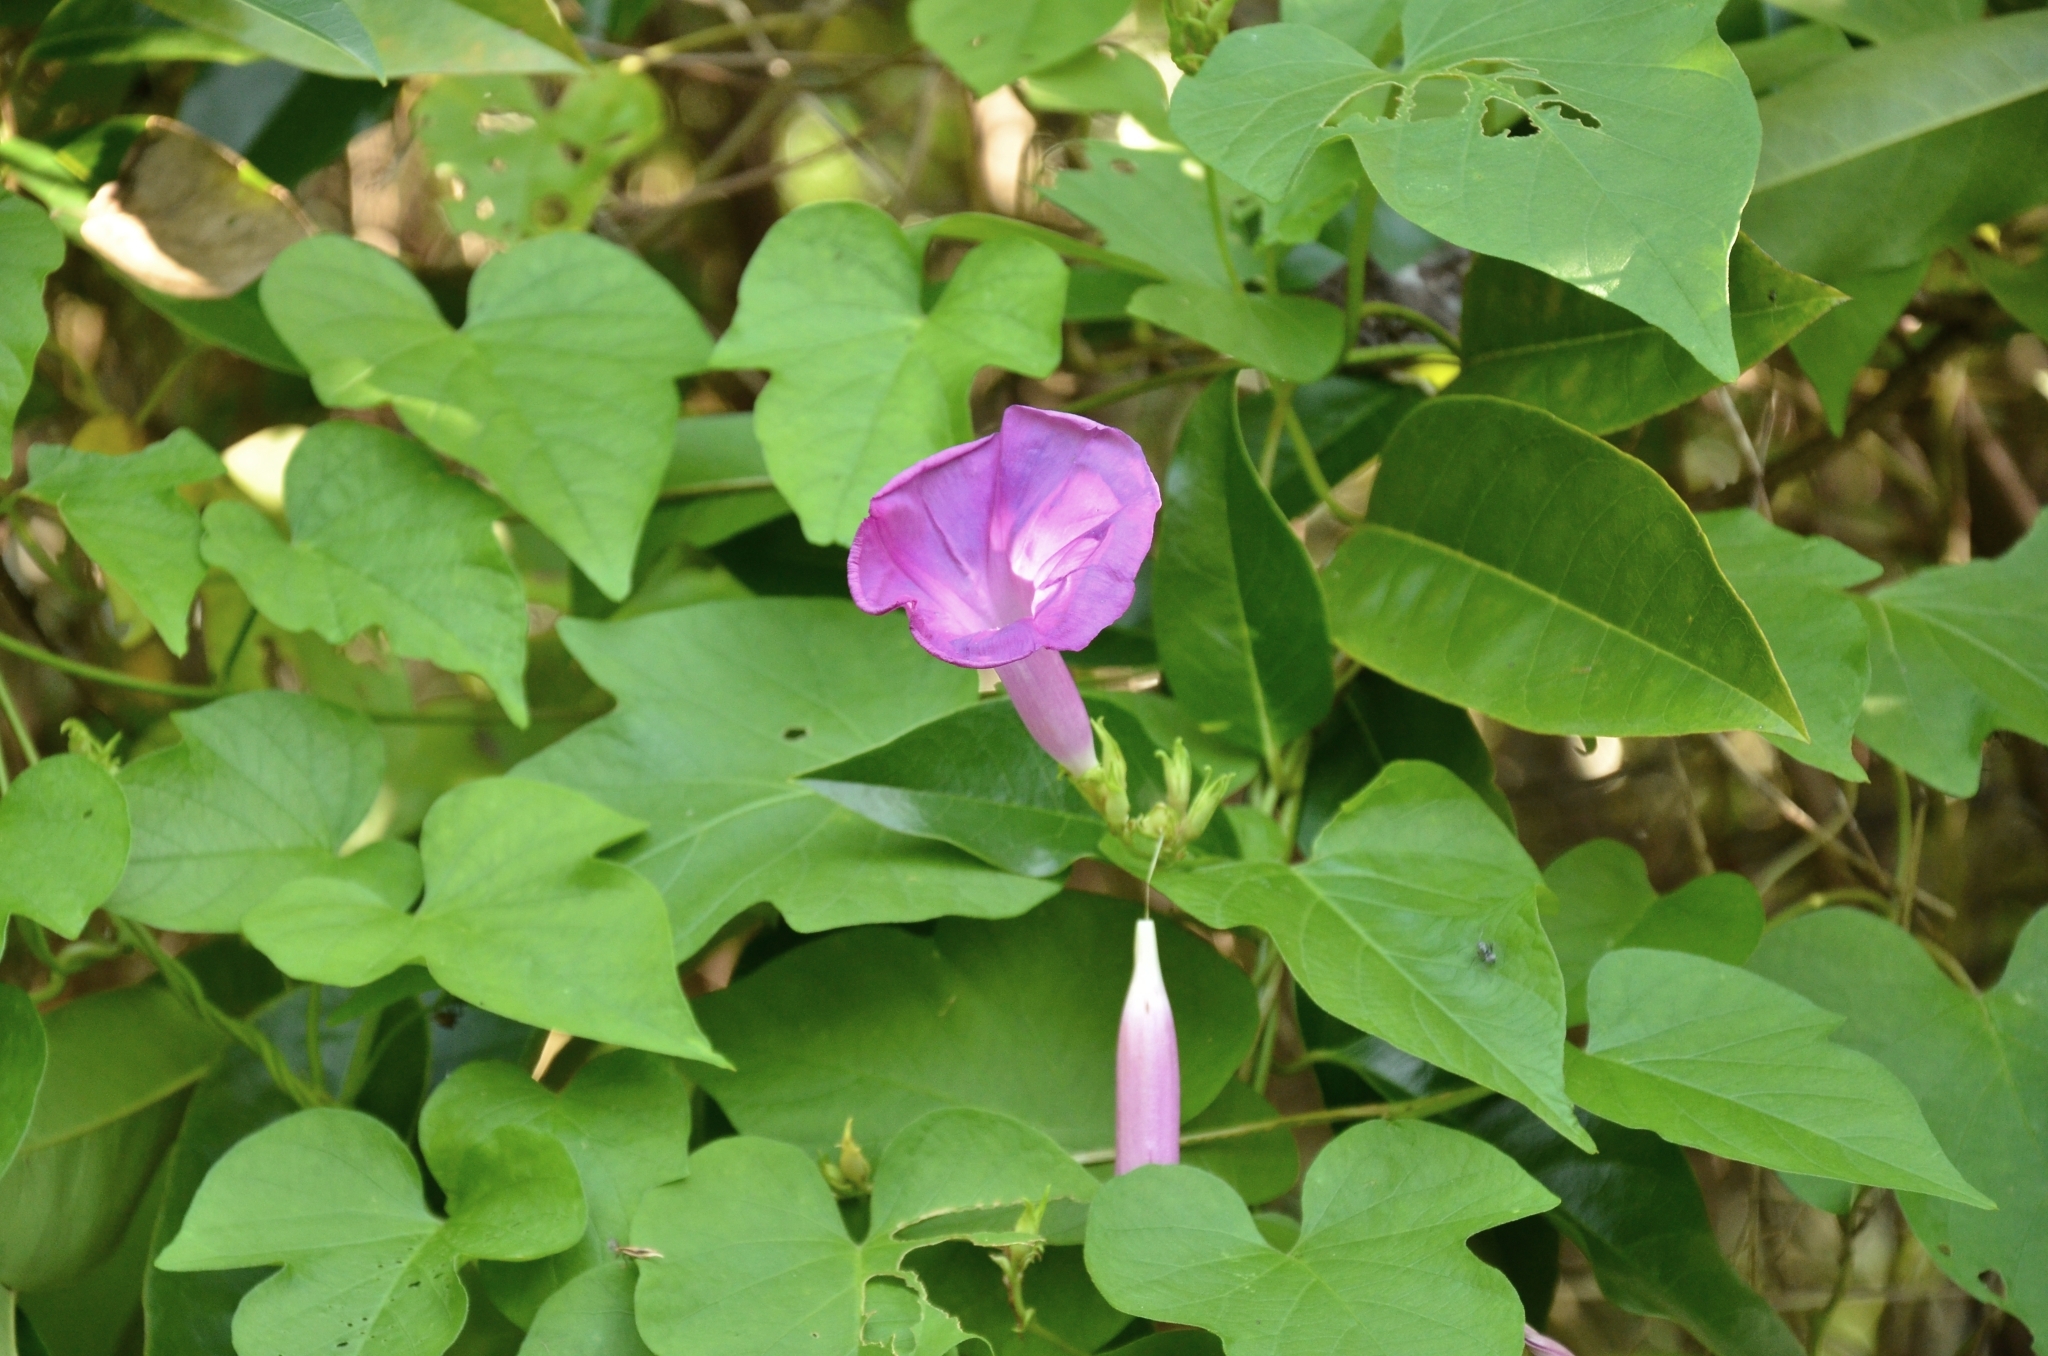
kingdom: Plantae
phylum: Tracheophyta
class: Magnoliopsida
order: Solanales
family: Convolvulaceae
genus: Ipomoea
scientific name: Ipomoea indica
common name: Blue dawnflower
